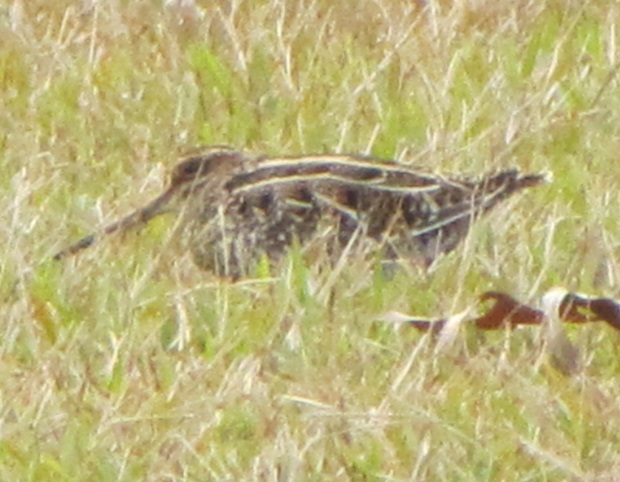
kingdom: Animalia
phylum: Chordata
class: Aves
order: Charadriiformes
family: Scolopacidae
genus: Gallinago
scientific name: Gallinago delicata
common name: Wilson's snipe
